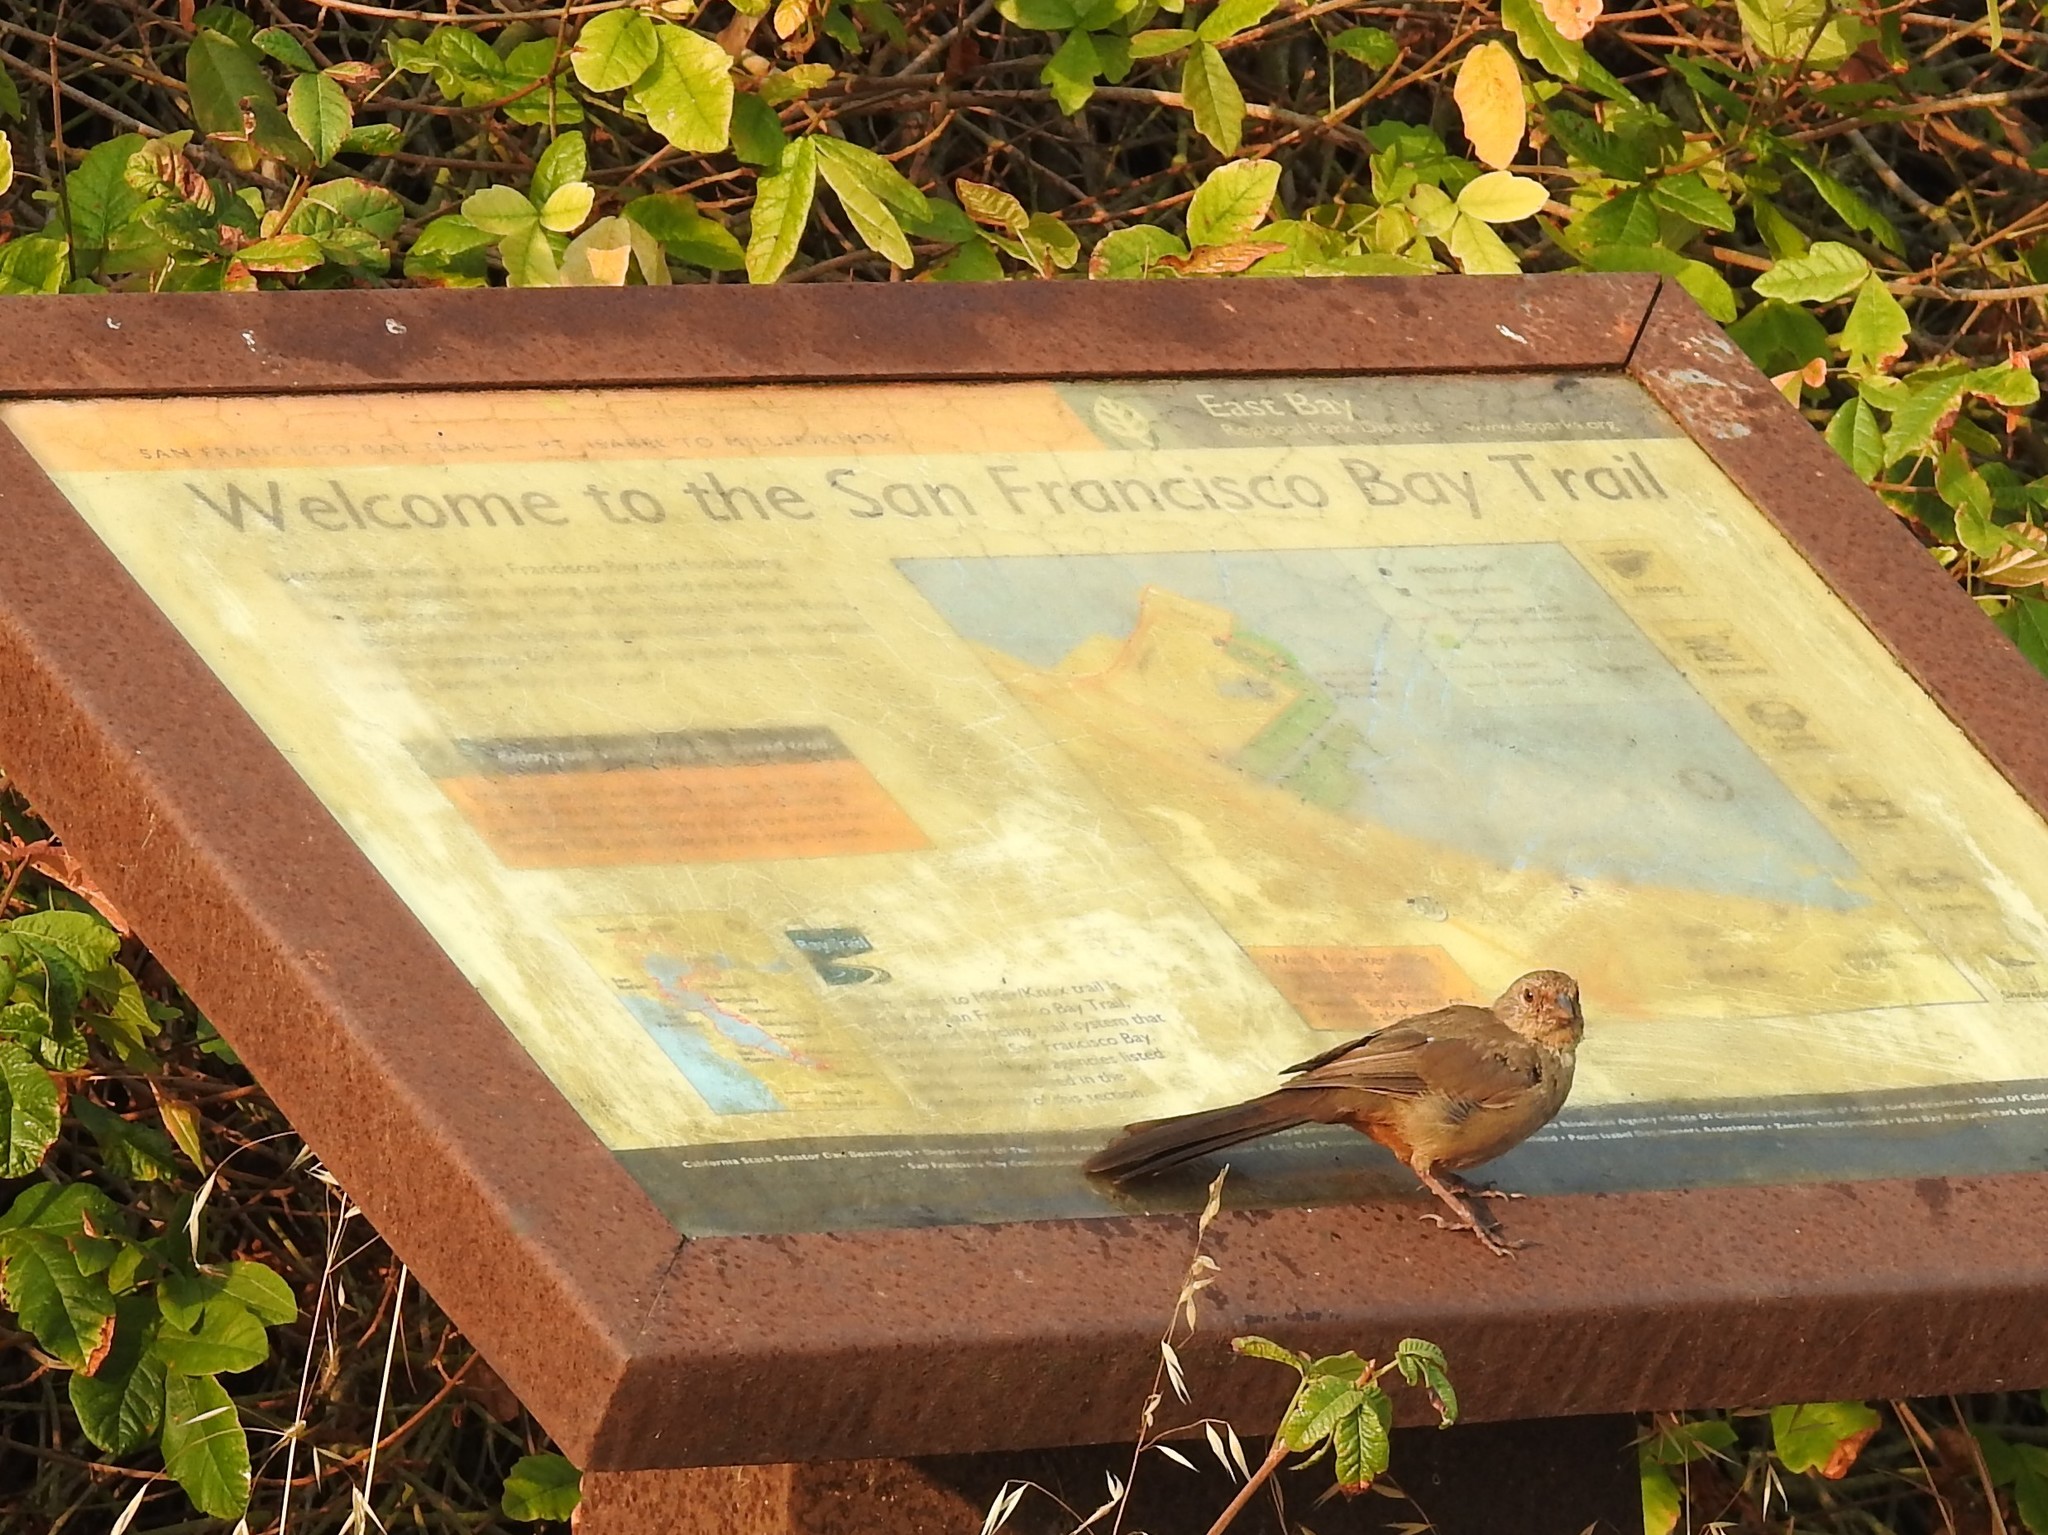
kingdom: Animalia
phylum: Chordata
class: Aves
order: Passeriformes
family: Passerellidae
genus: Melozone
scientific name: Melozone crissalis
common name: California towhee
